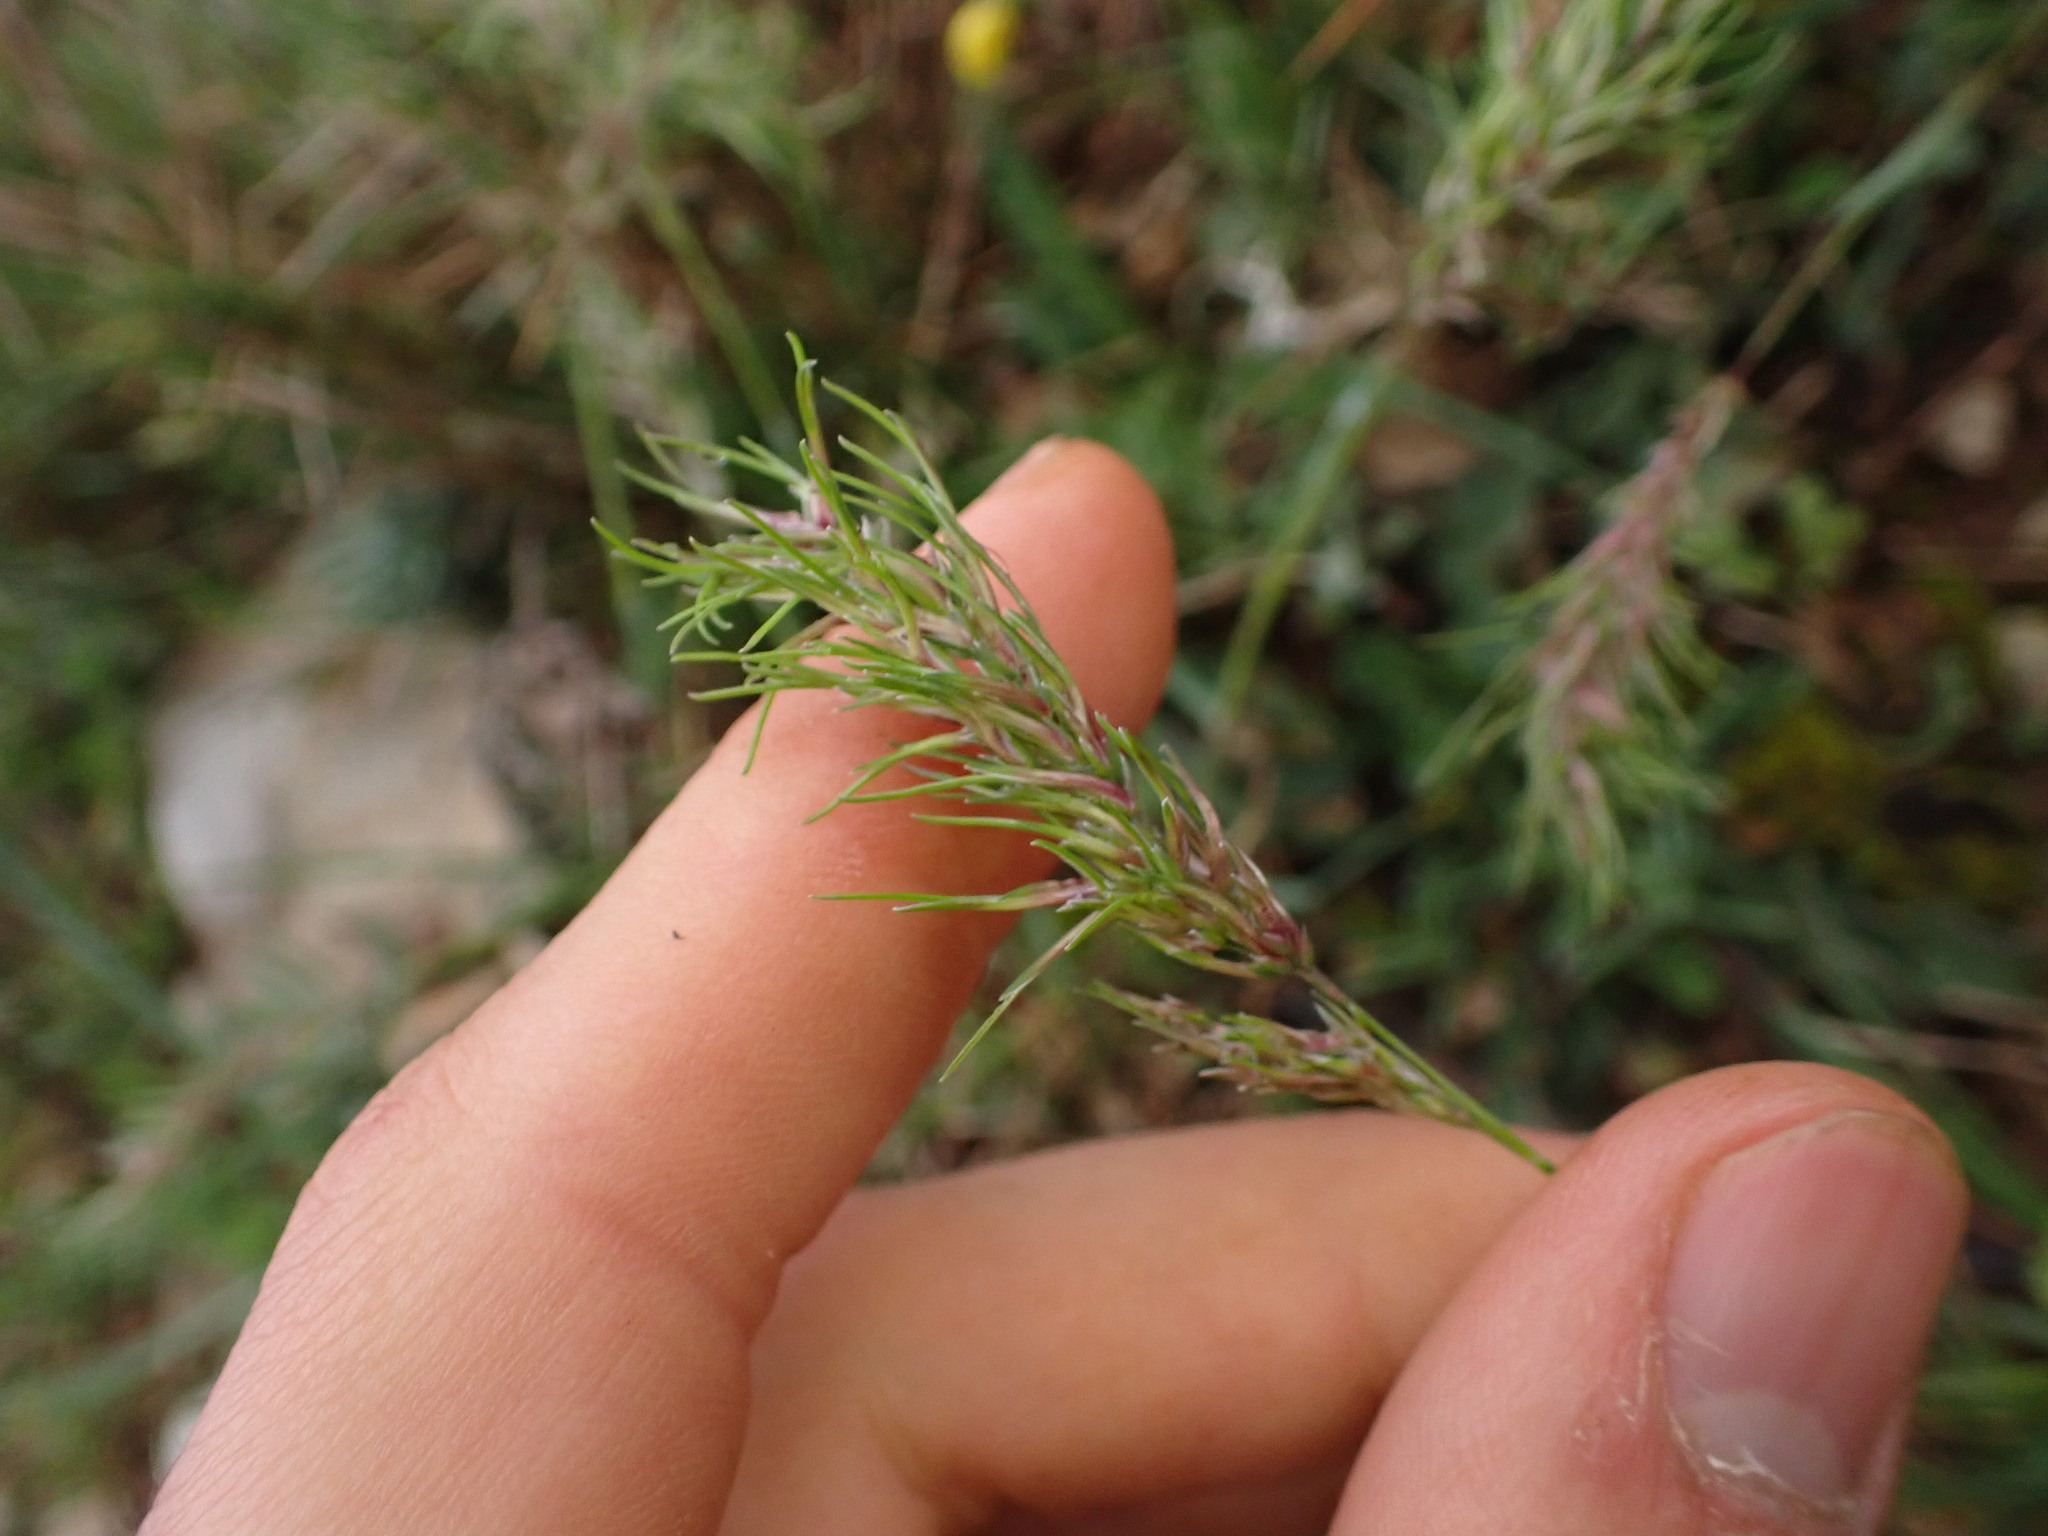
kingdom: Plantae
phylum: Tracheophyta
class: Liliopsida
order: Poales
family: Poaceae
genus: Poa
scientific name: Poa bulbosa
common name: Bulbous bluegrass
